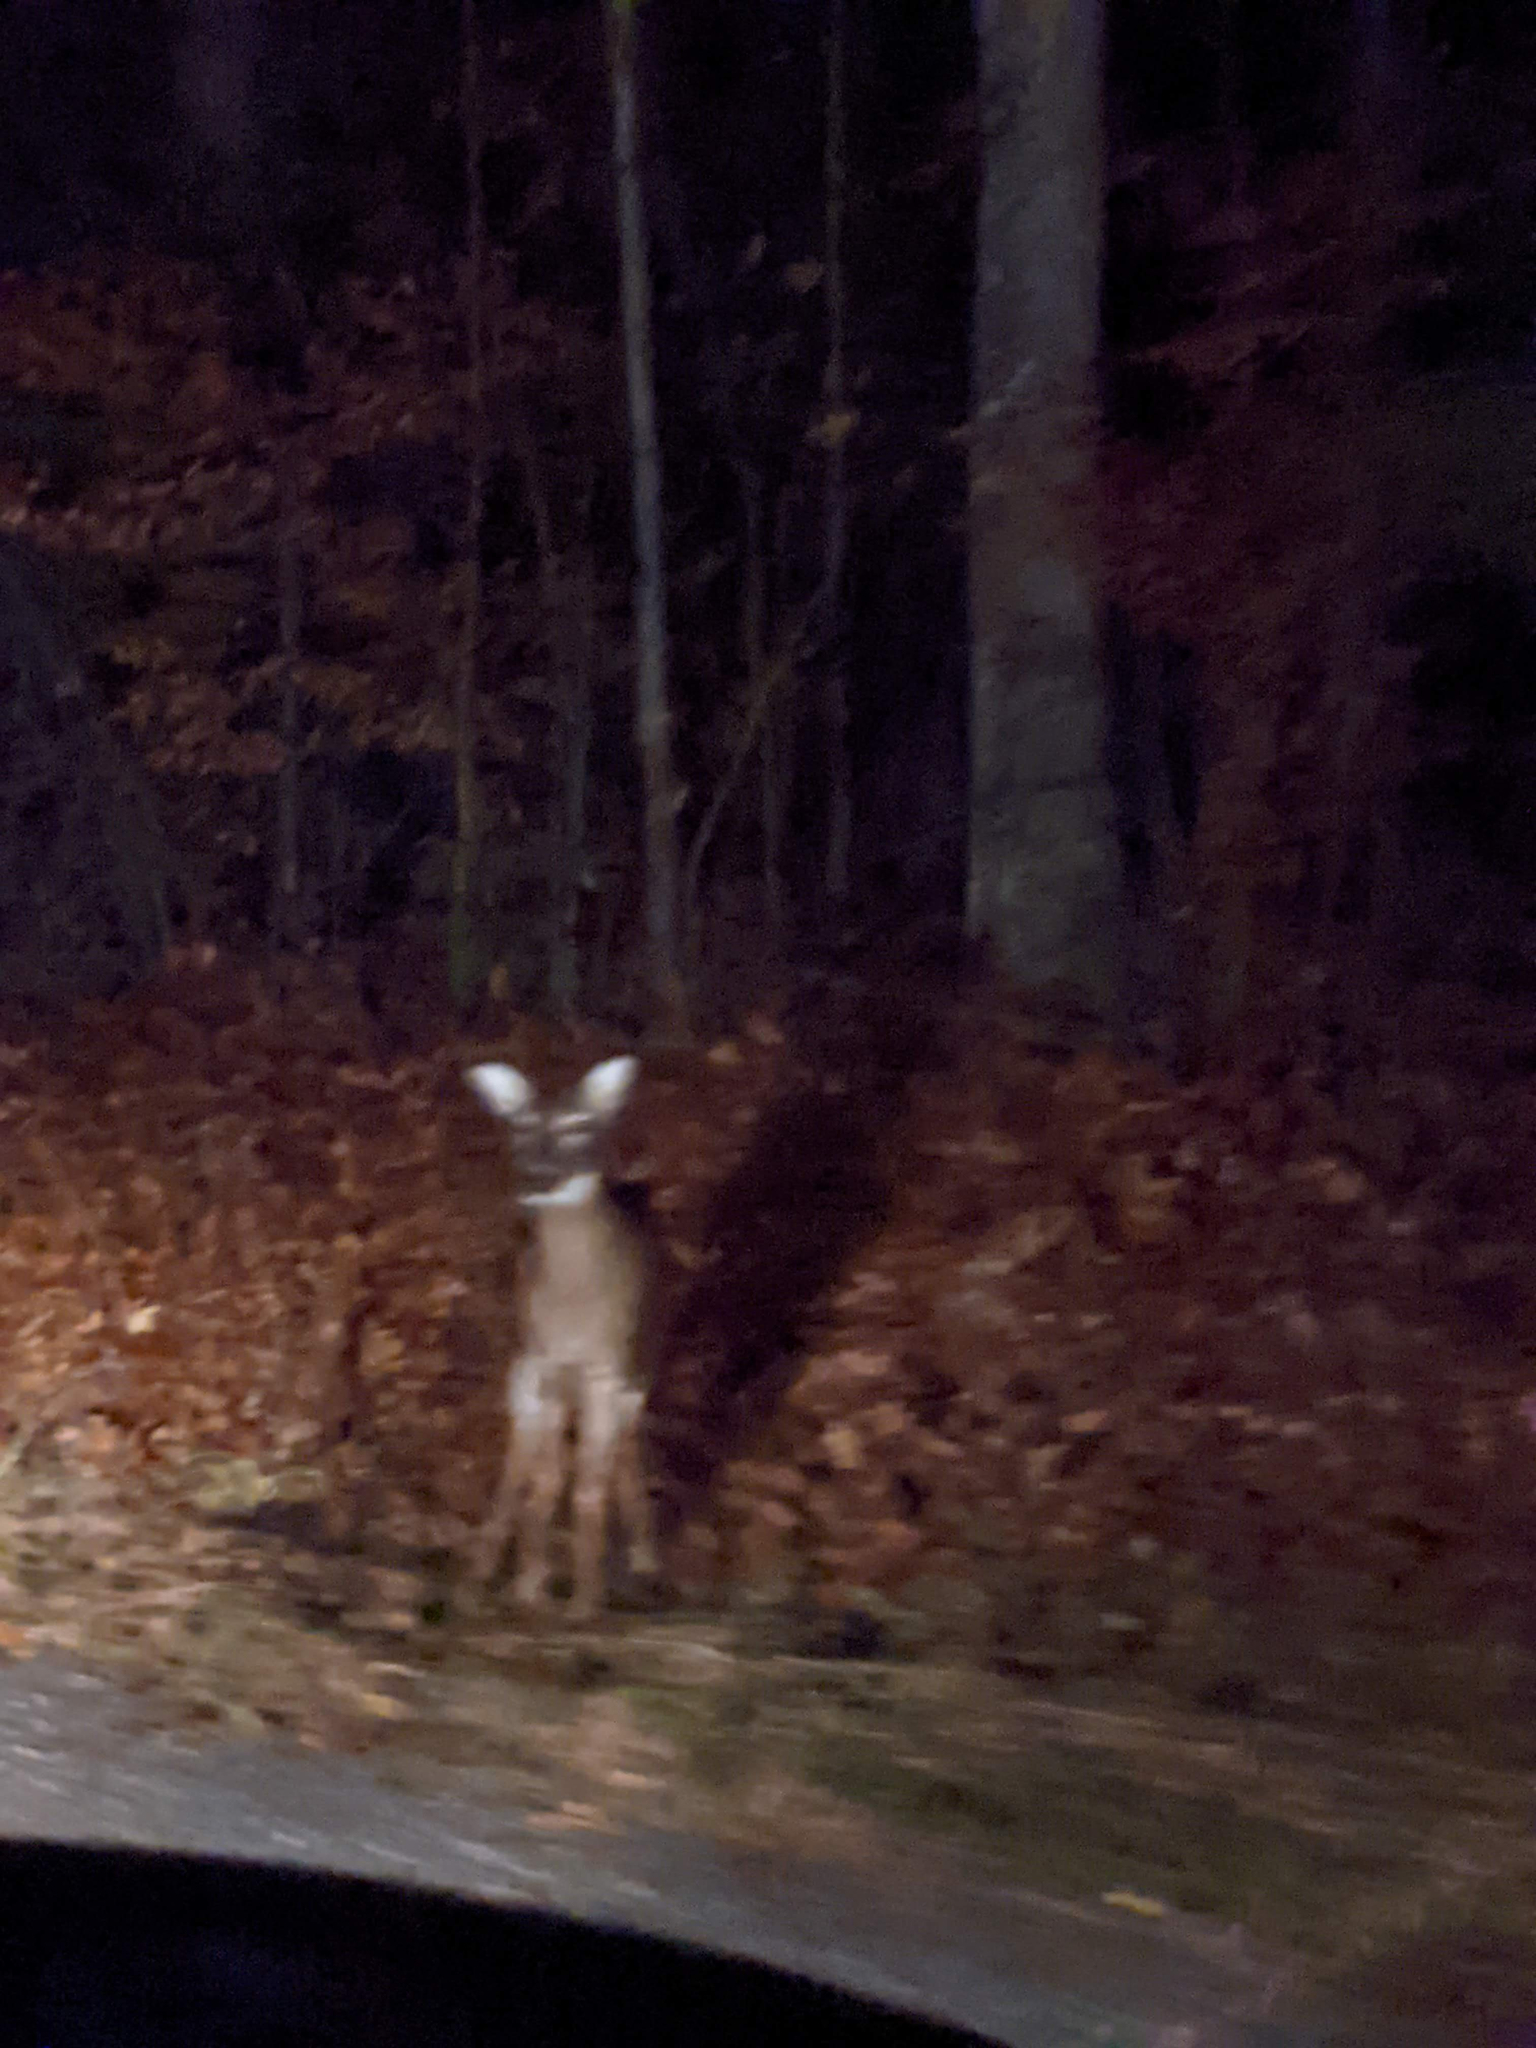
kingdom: Animalia
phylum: Chordata
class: Mammalia
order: Artiodactyla
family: Cervidae
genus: Odocoileus
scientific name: Odocoileus virginianus
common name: White-tailed deer
